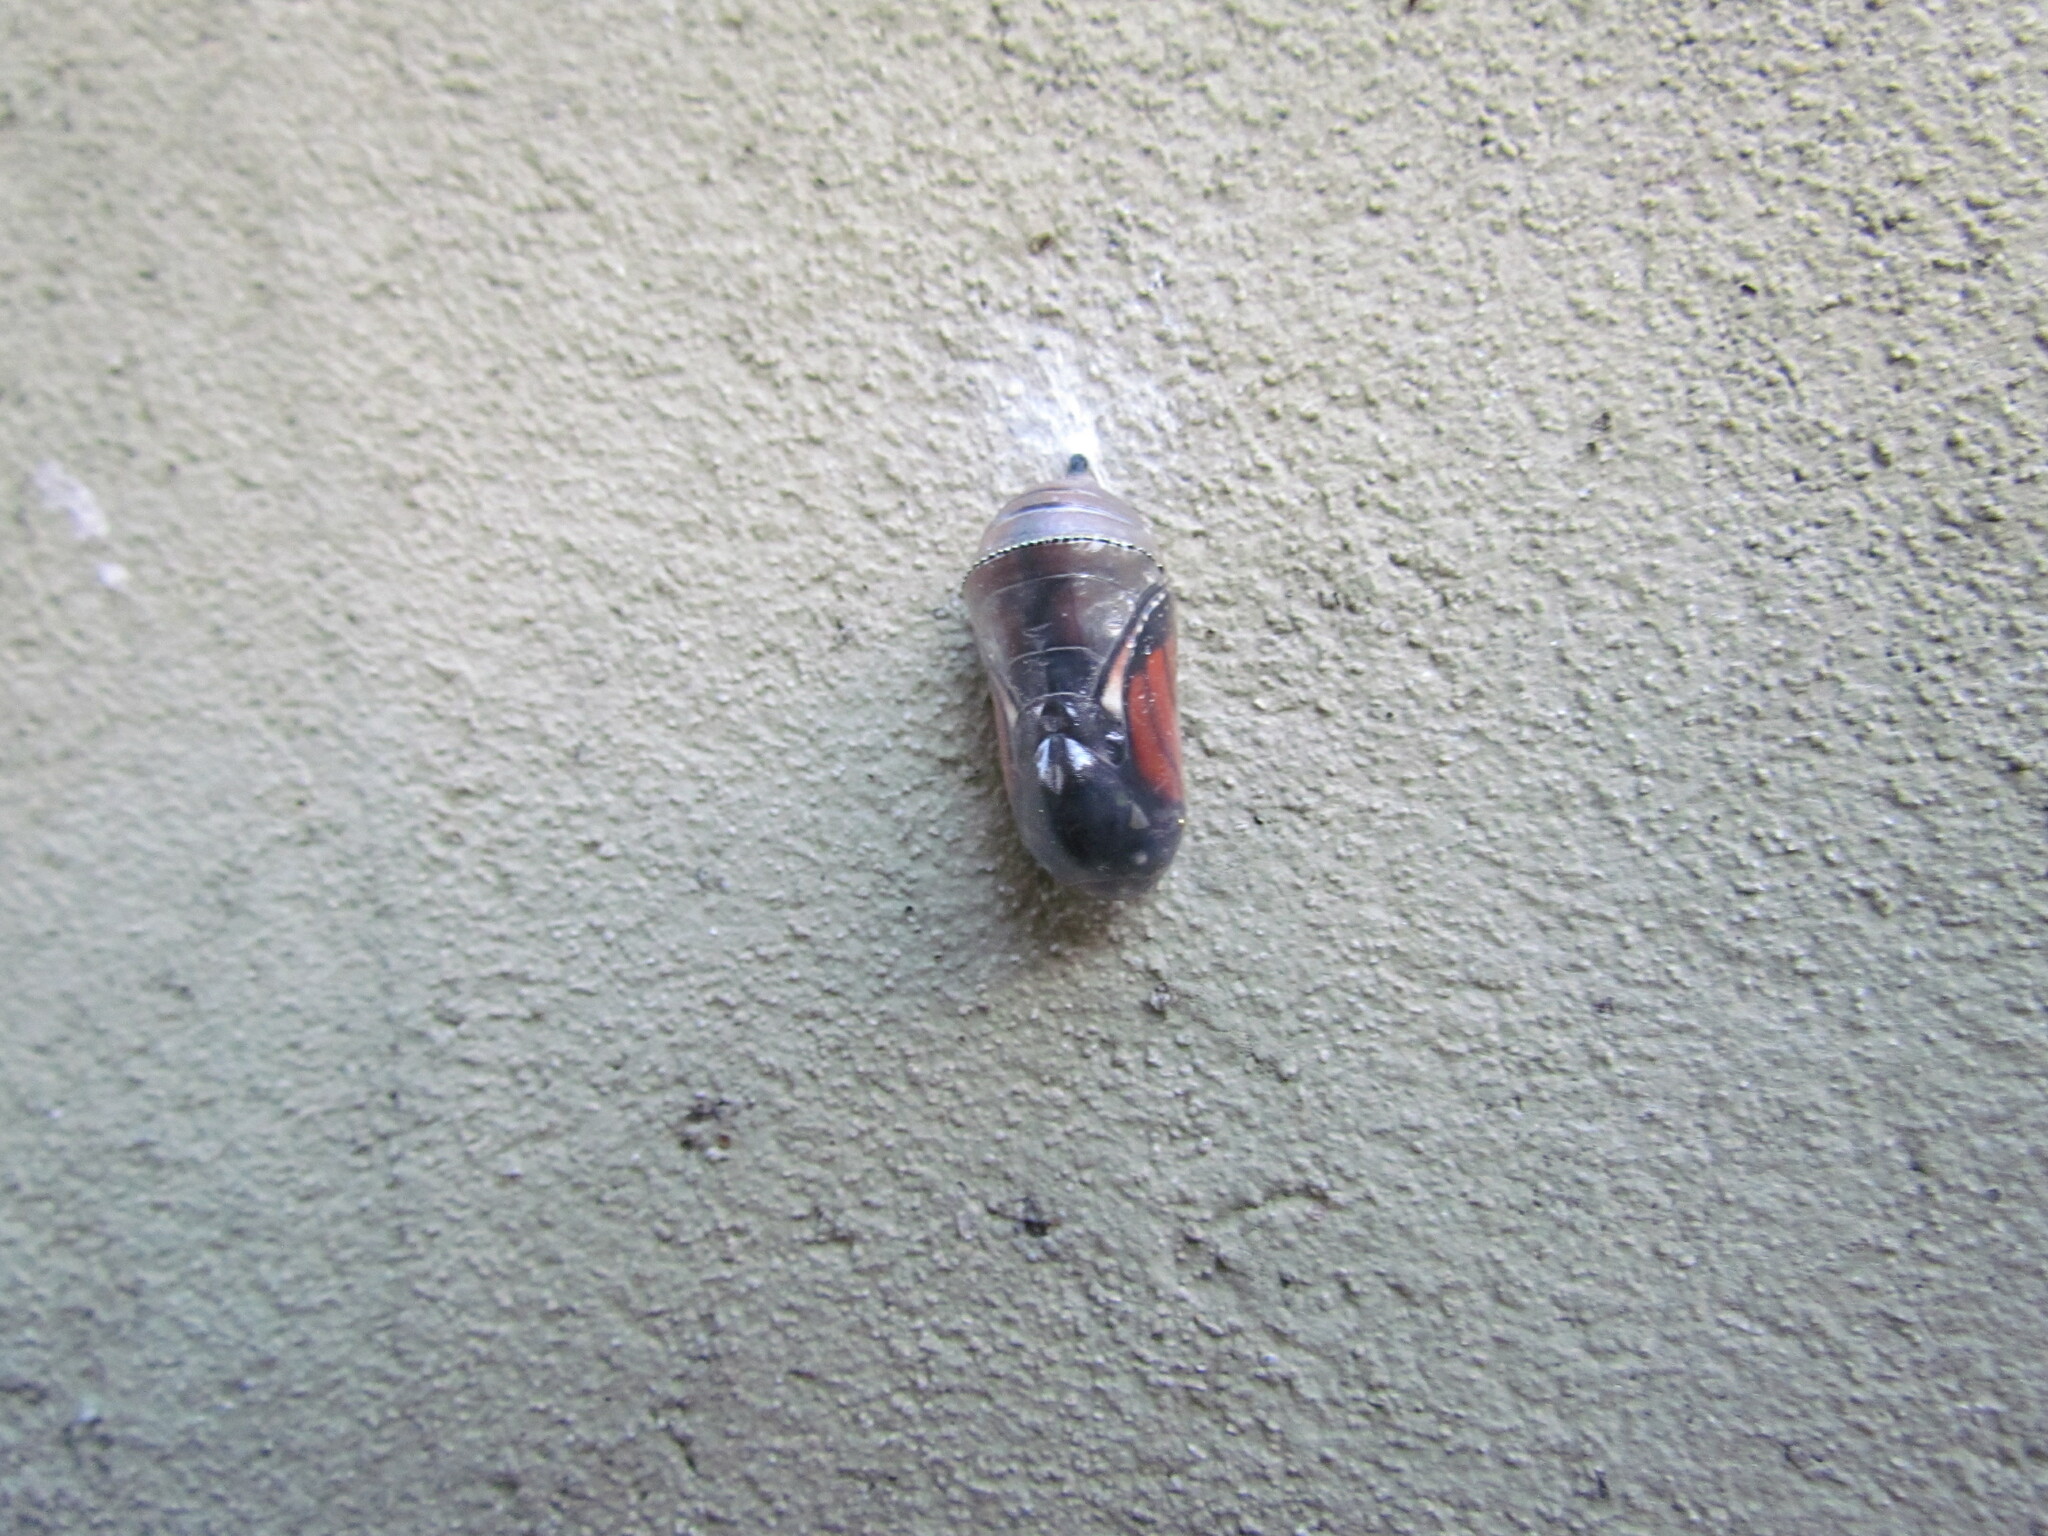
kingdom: Animalia
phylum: Arthropoda
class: Insecta
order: Lepidoptera
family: Nymphalidae
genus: Danaus
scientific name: Danaus erippus
